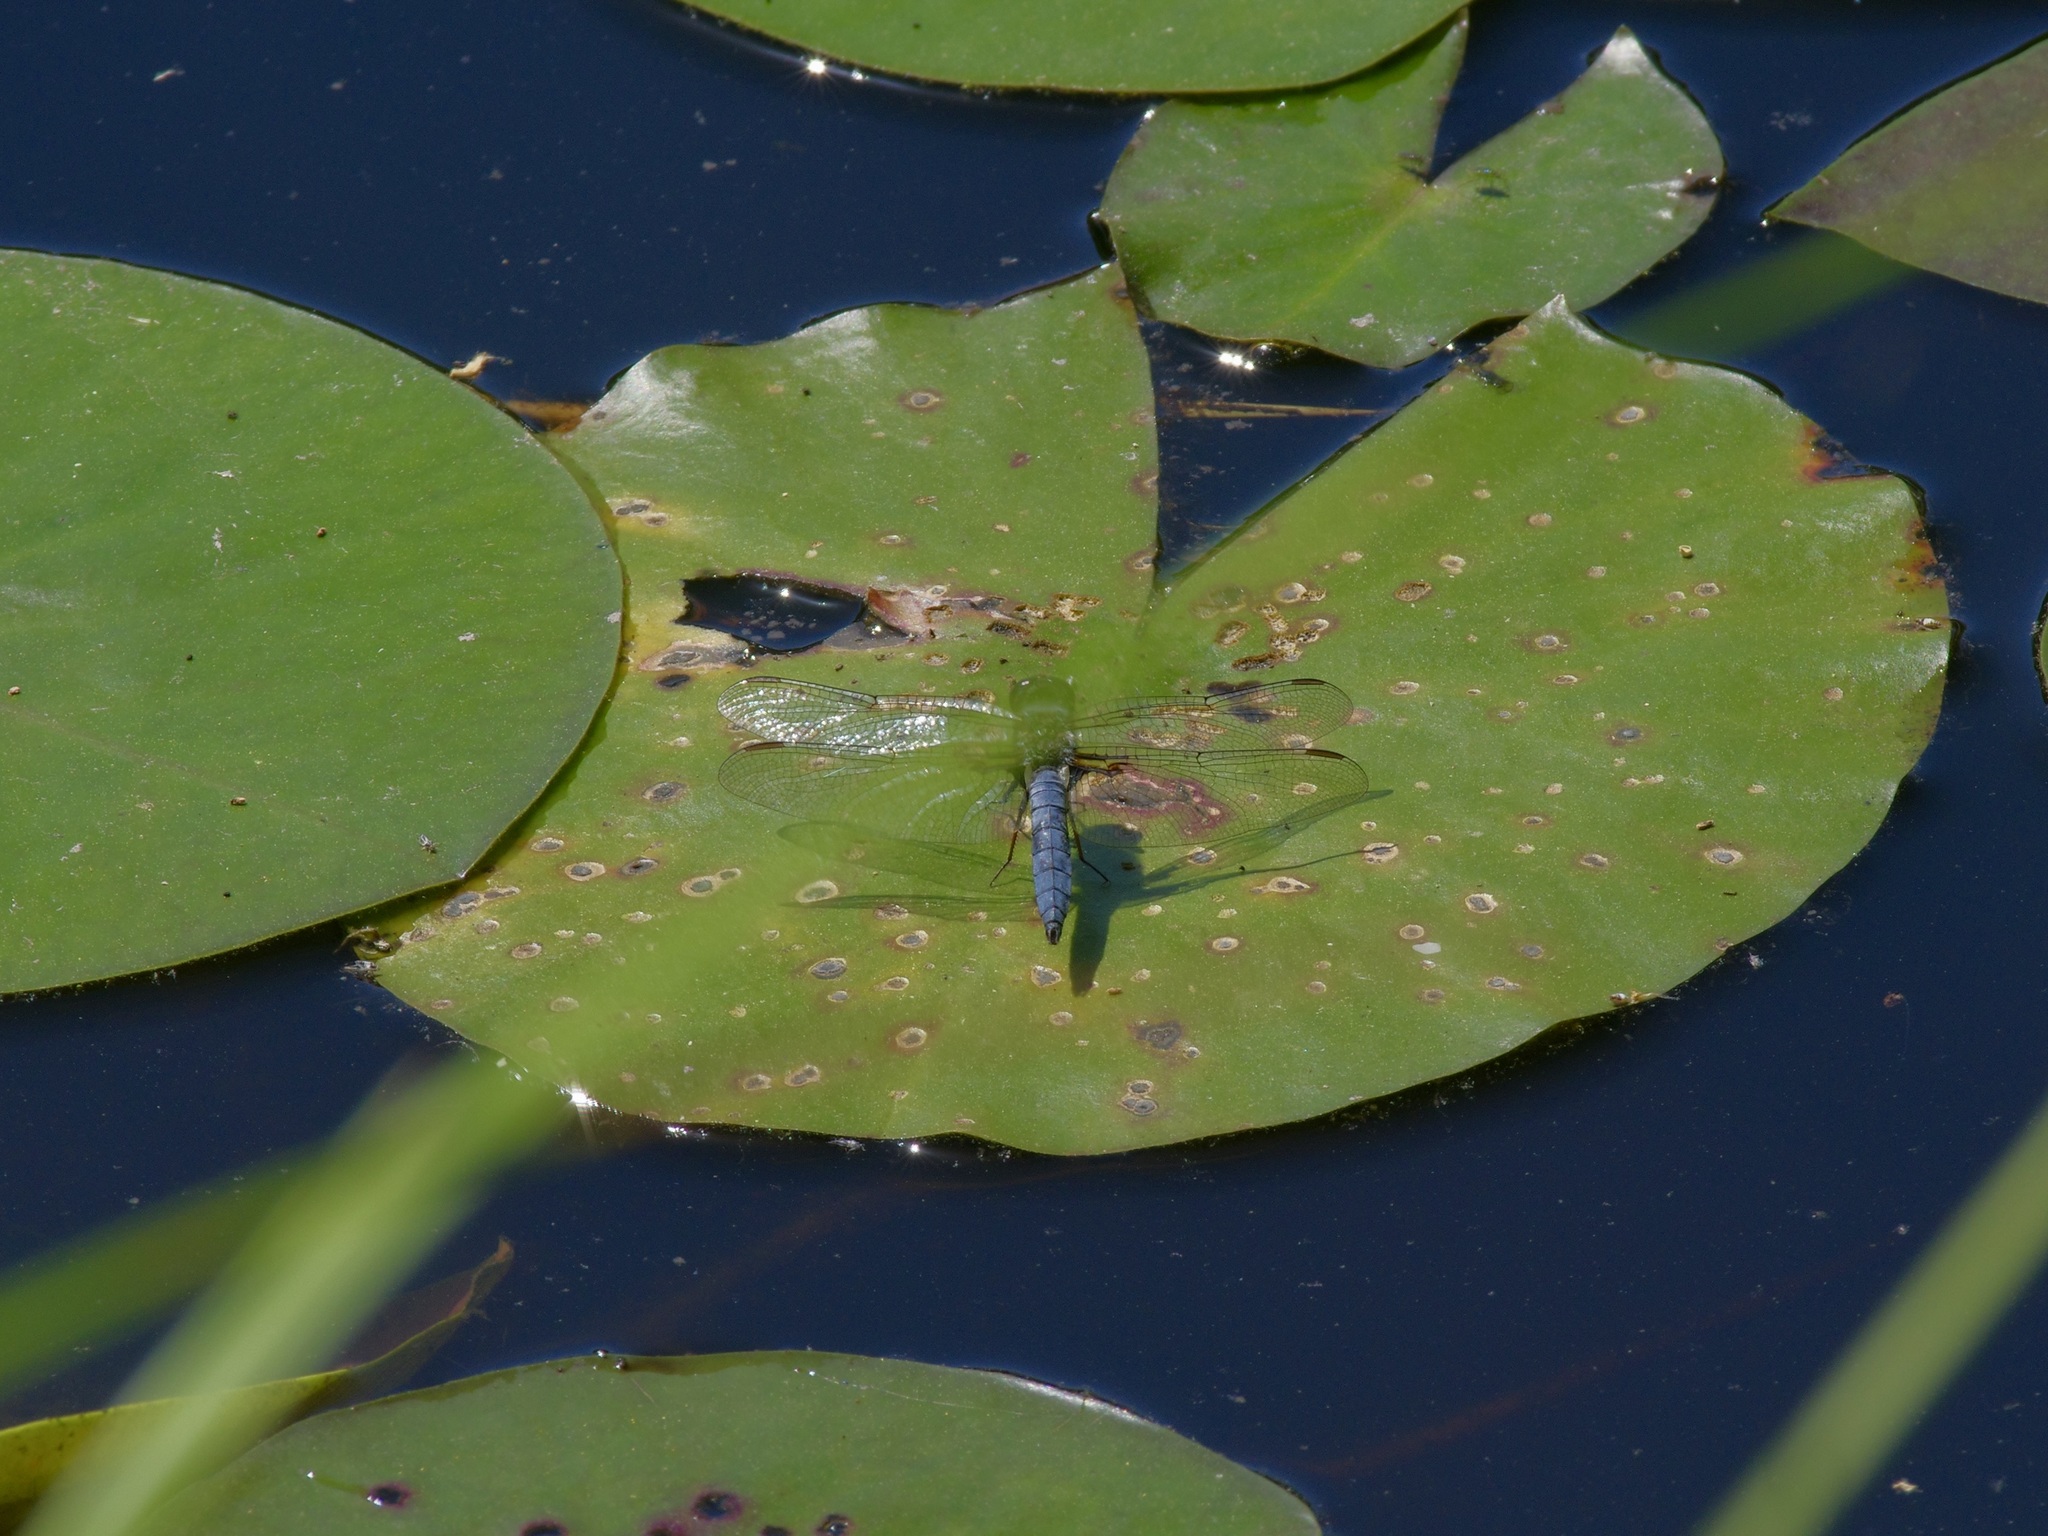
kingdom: Animalia
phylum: Arthropoda
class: Insecta
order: Odonata
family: Libellulidae
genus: Ladona
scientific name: Ladona deplanata
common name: Blue corporal
